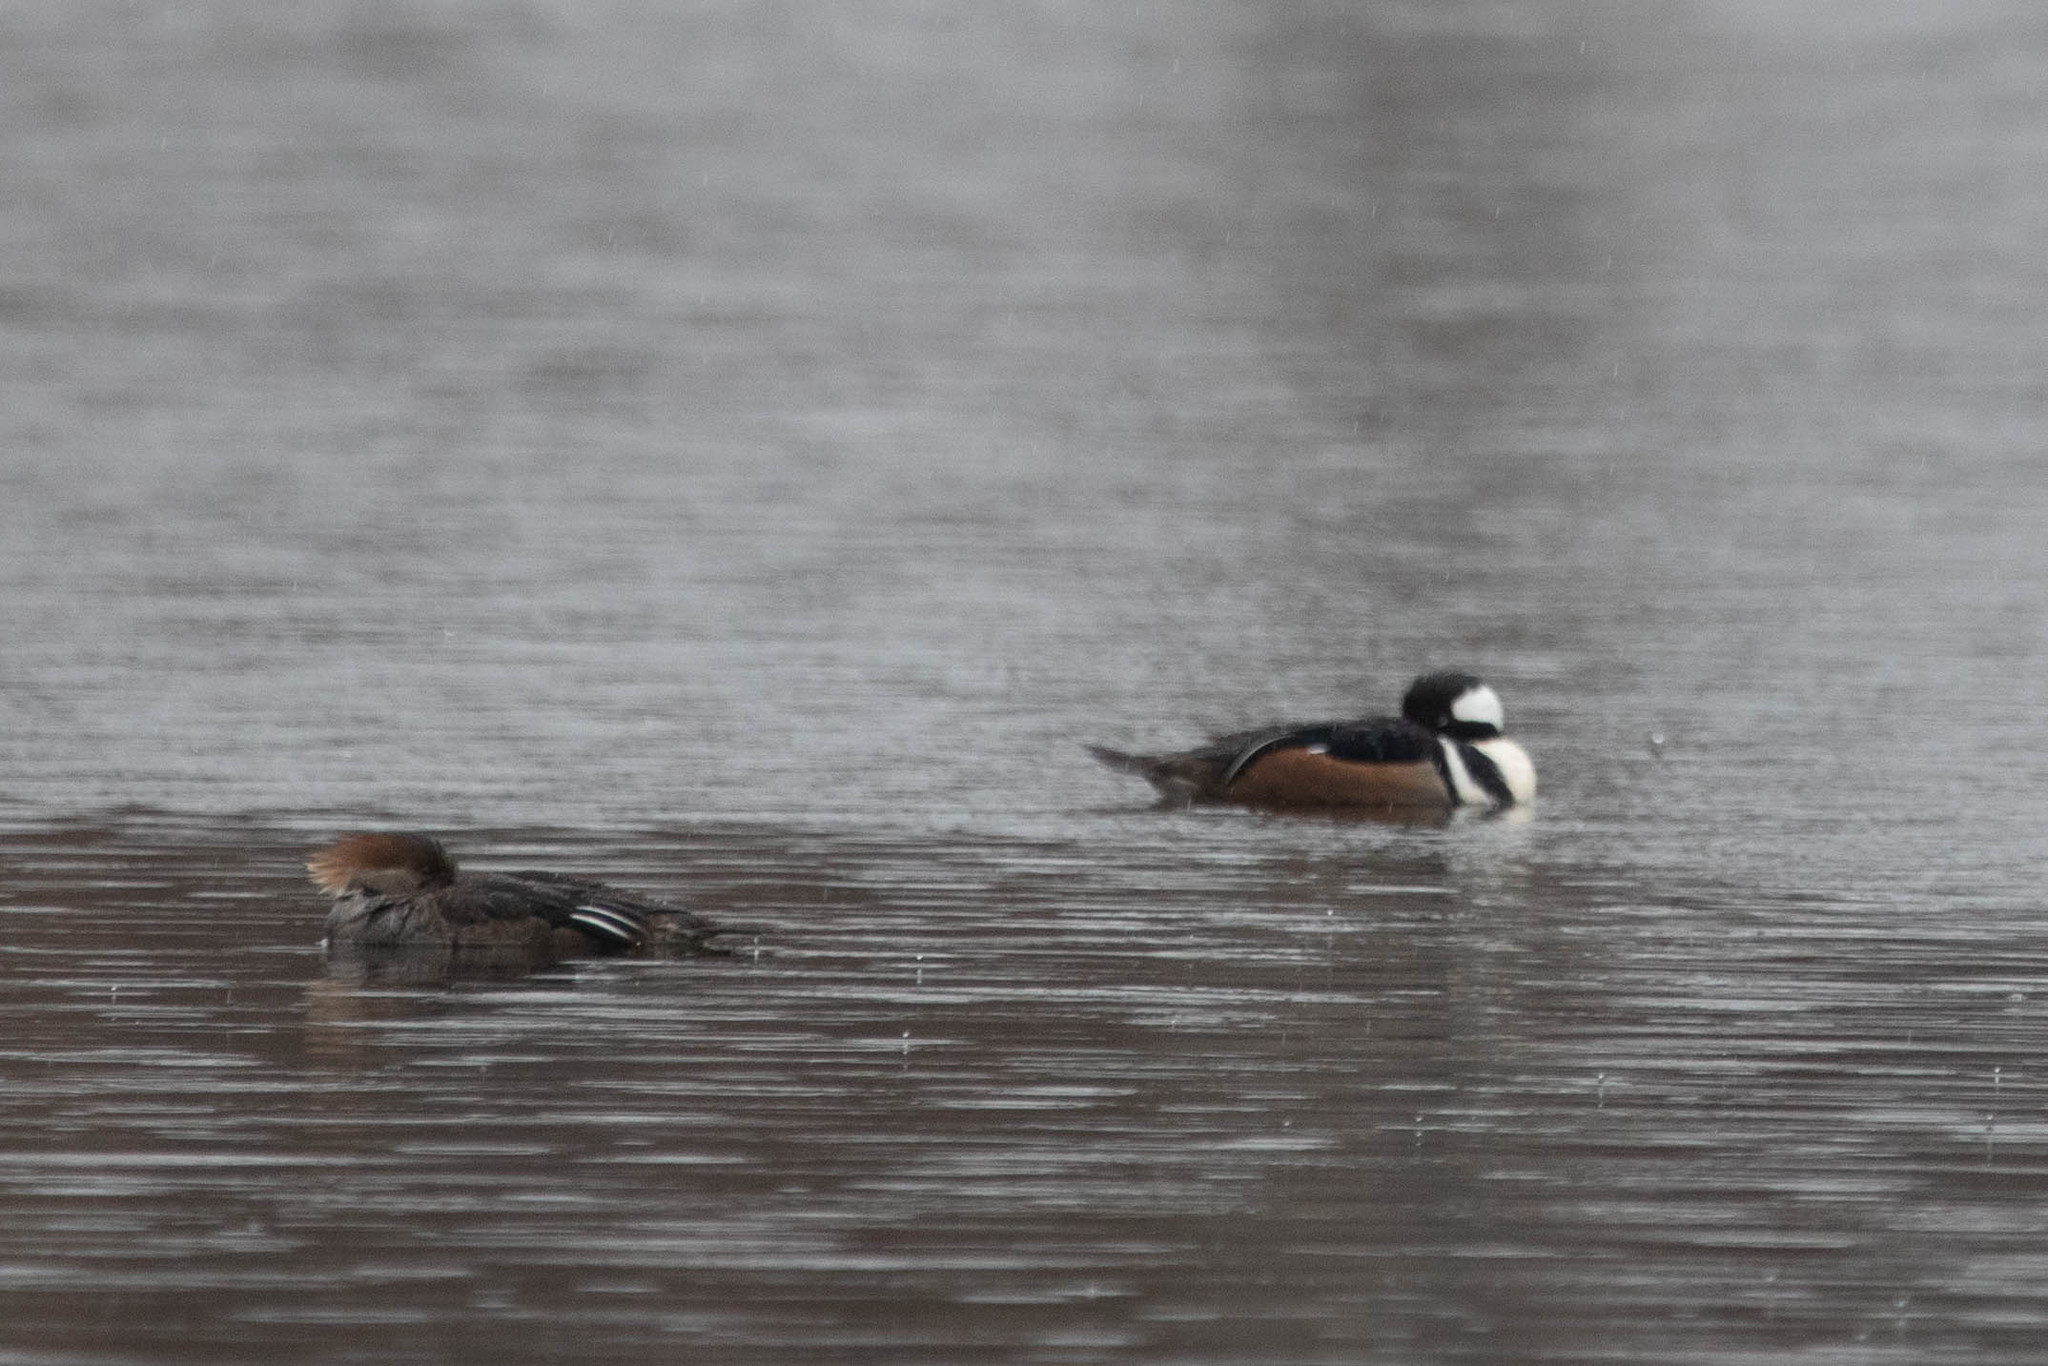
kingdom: Animalia
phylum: Chordata
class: Aves
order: Anseriformes
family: Anatidae
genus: Lophodytes
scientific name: Lophodytes cucullatus
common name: Hooded merganser
